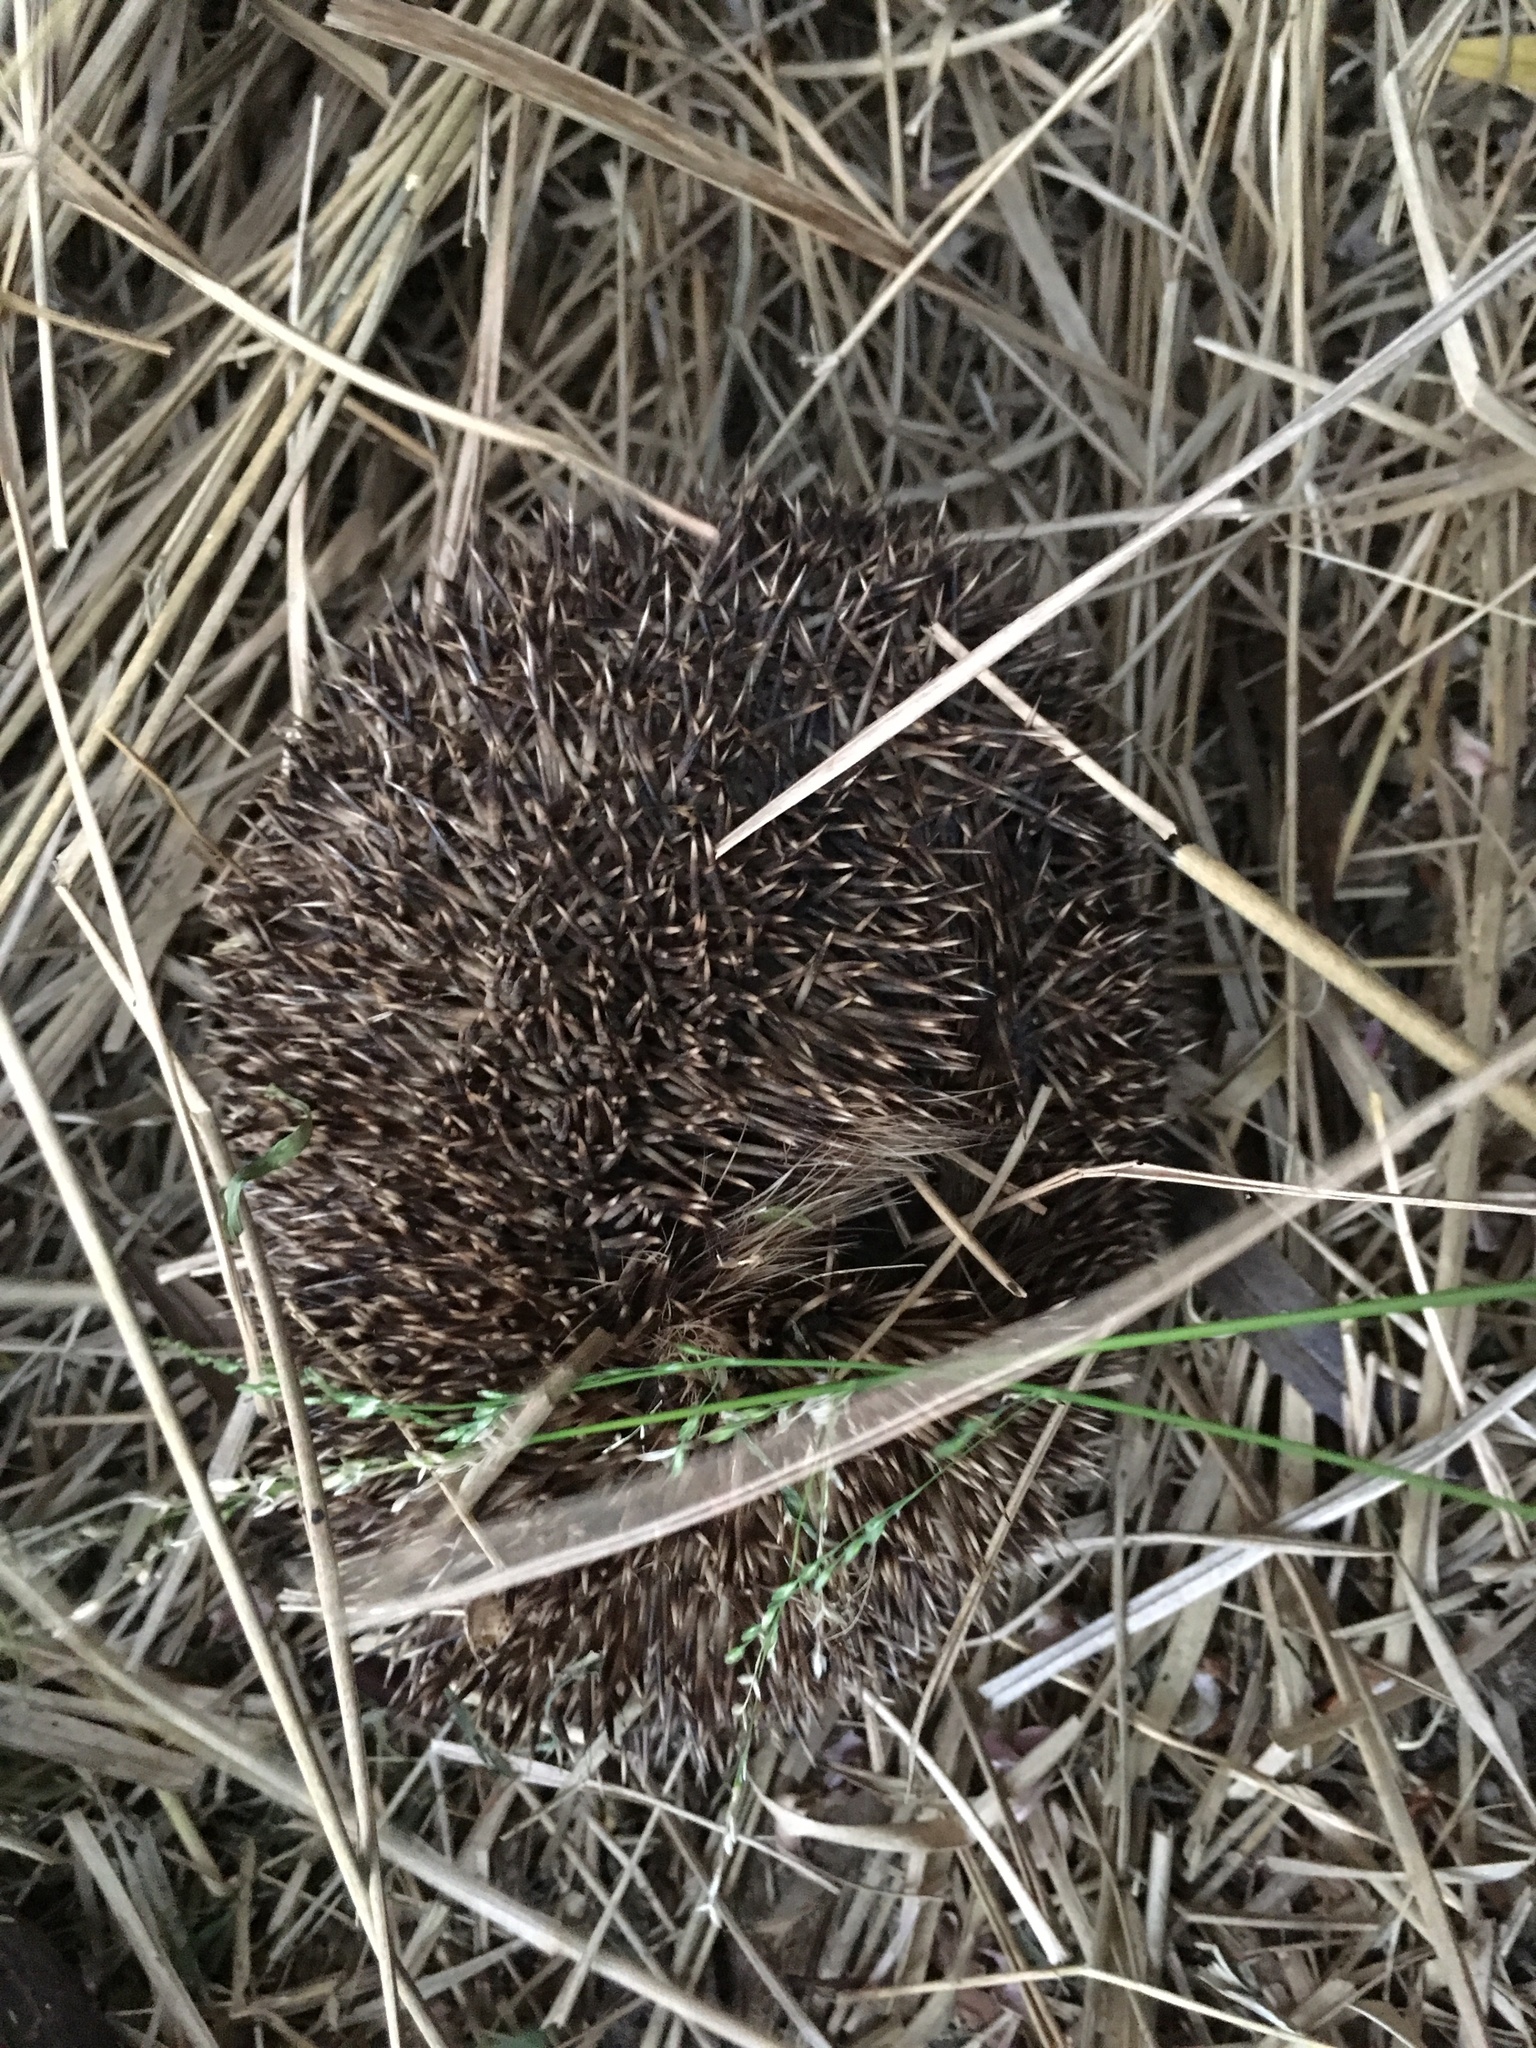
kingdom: Animalia
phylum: Chordata
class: Mammalia
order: Erinaceomorpha
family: Erinaceidae
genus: Erinaceus
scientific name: Erinaceus europaeus
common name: West european hedgehog
